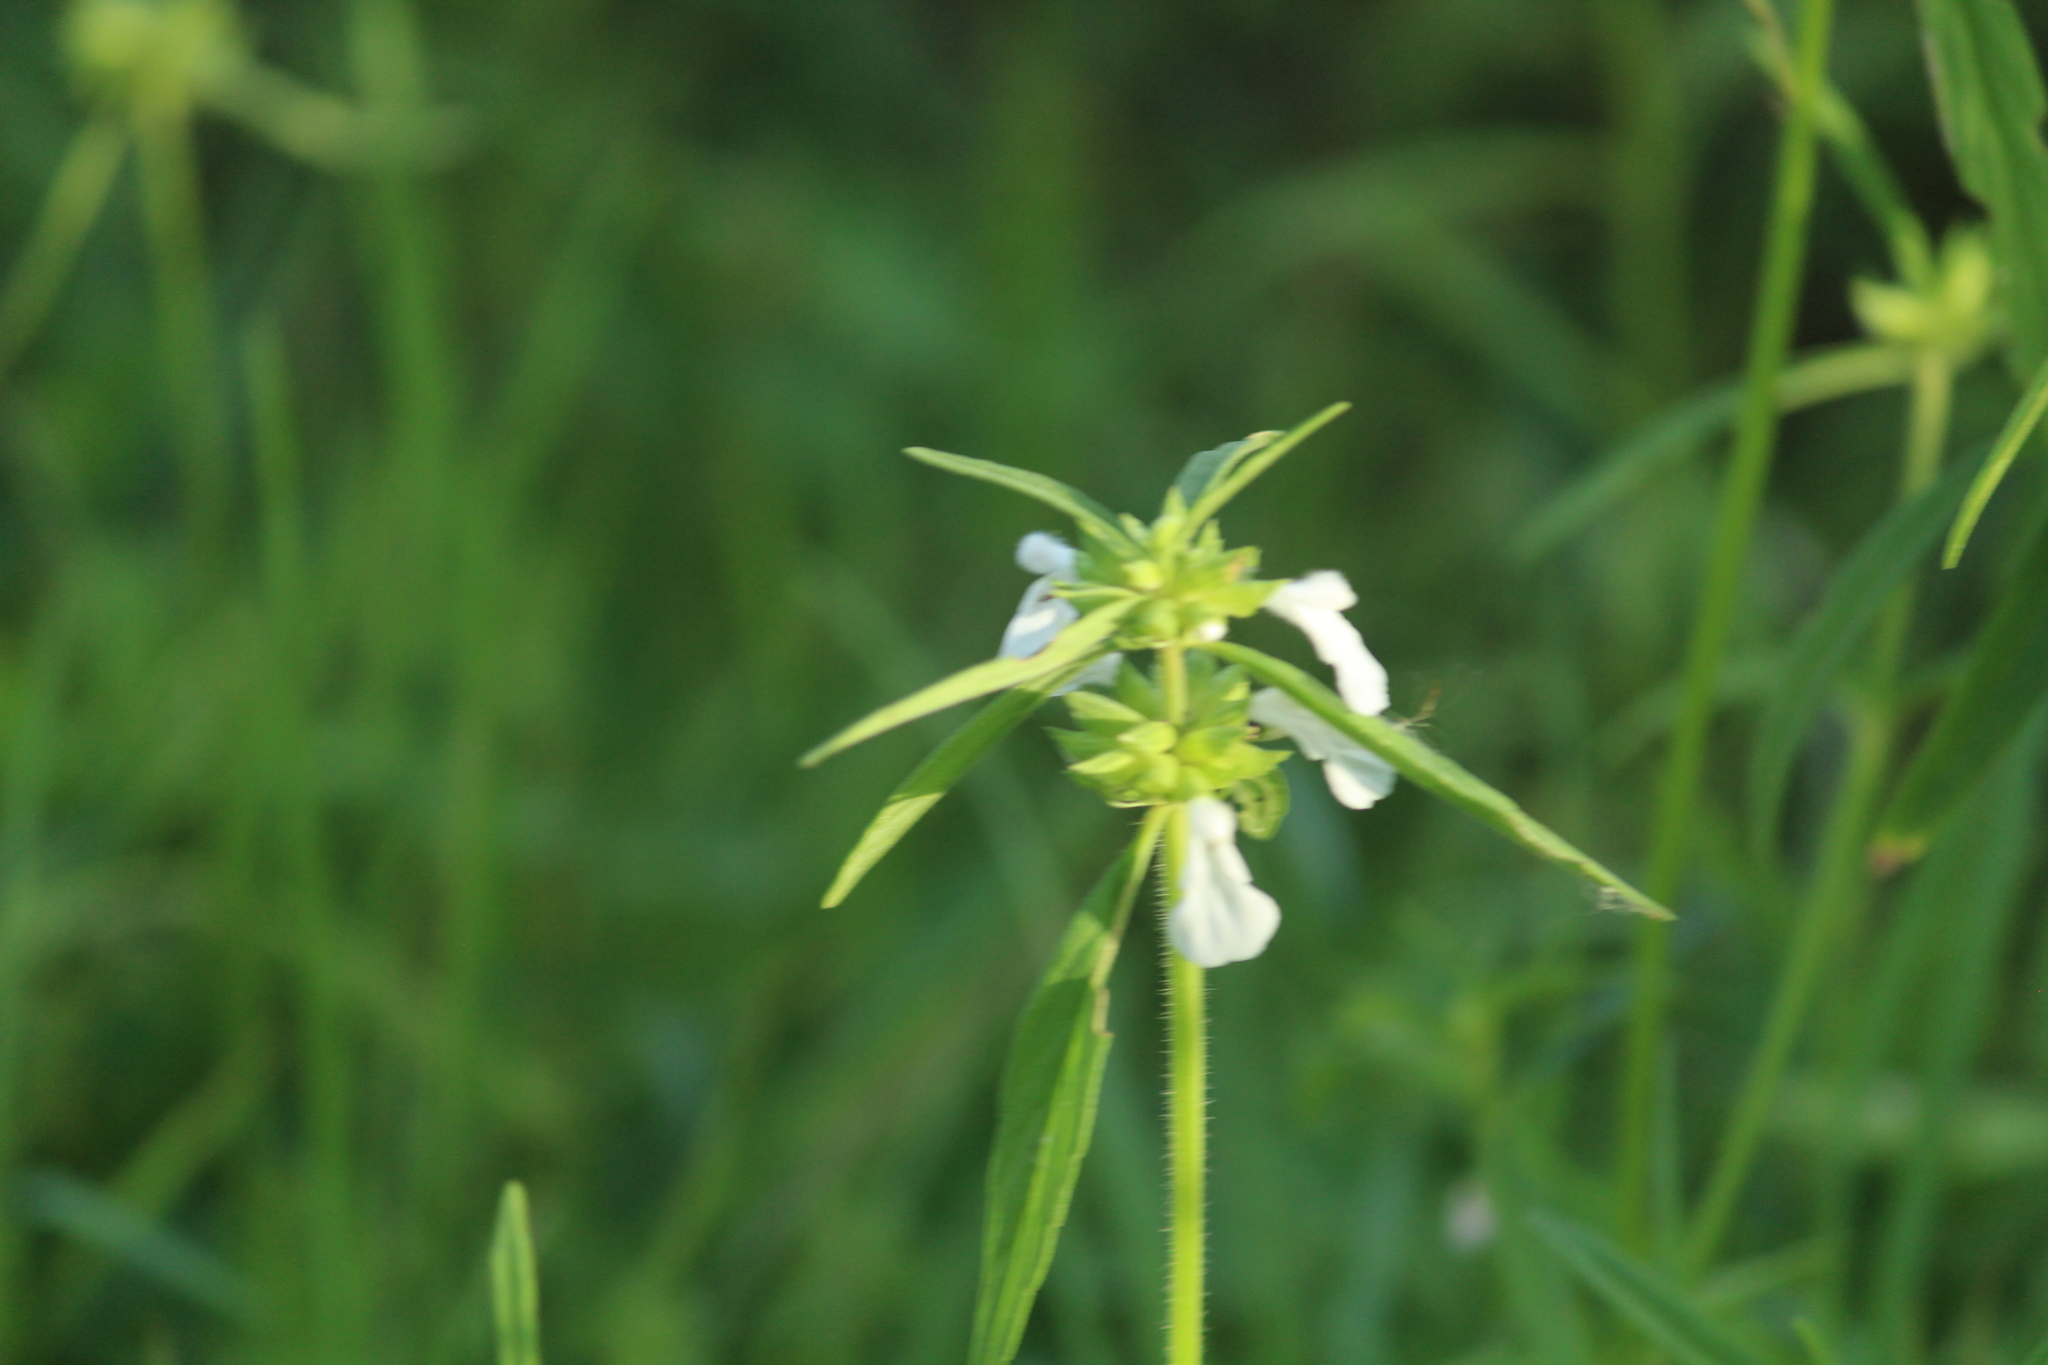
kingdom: Plantae
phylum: Tracheophyta
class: Magnoliopsida
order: Lamiales
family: Lamiaceae
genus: Leucas
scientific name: Leucas aspera
